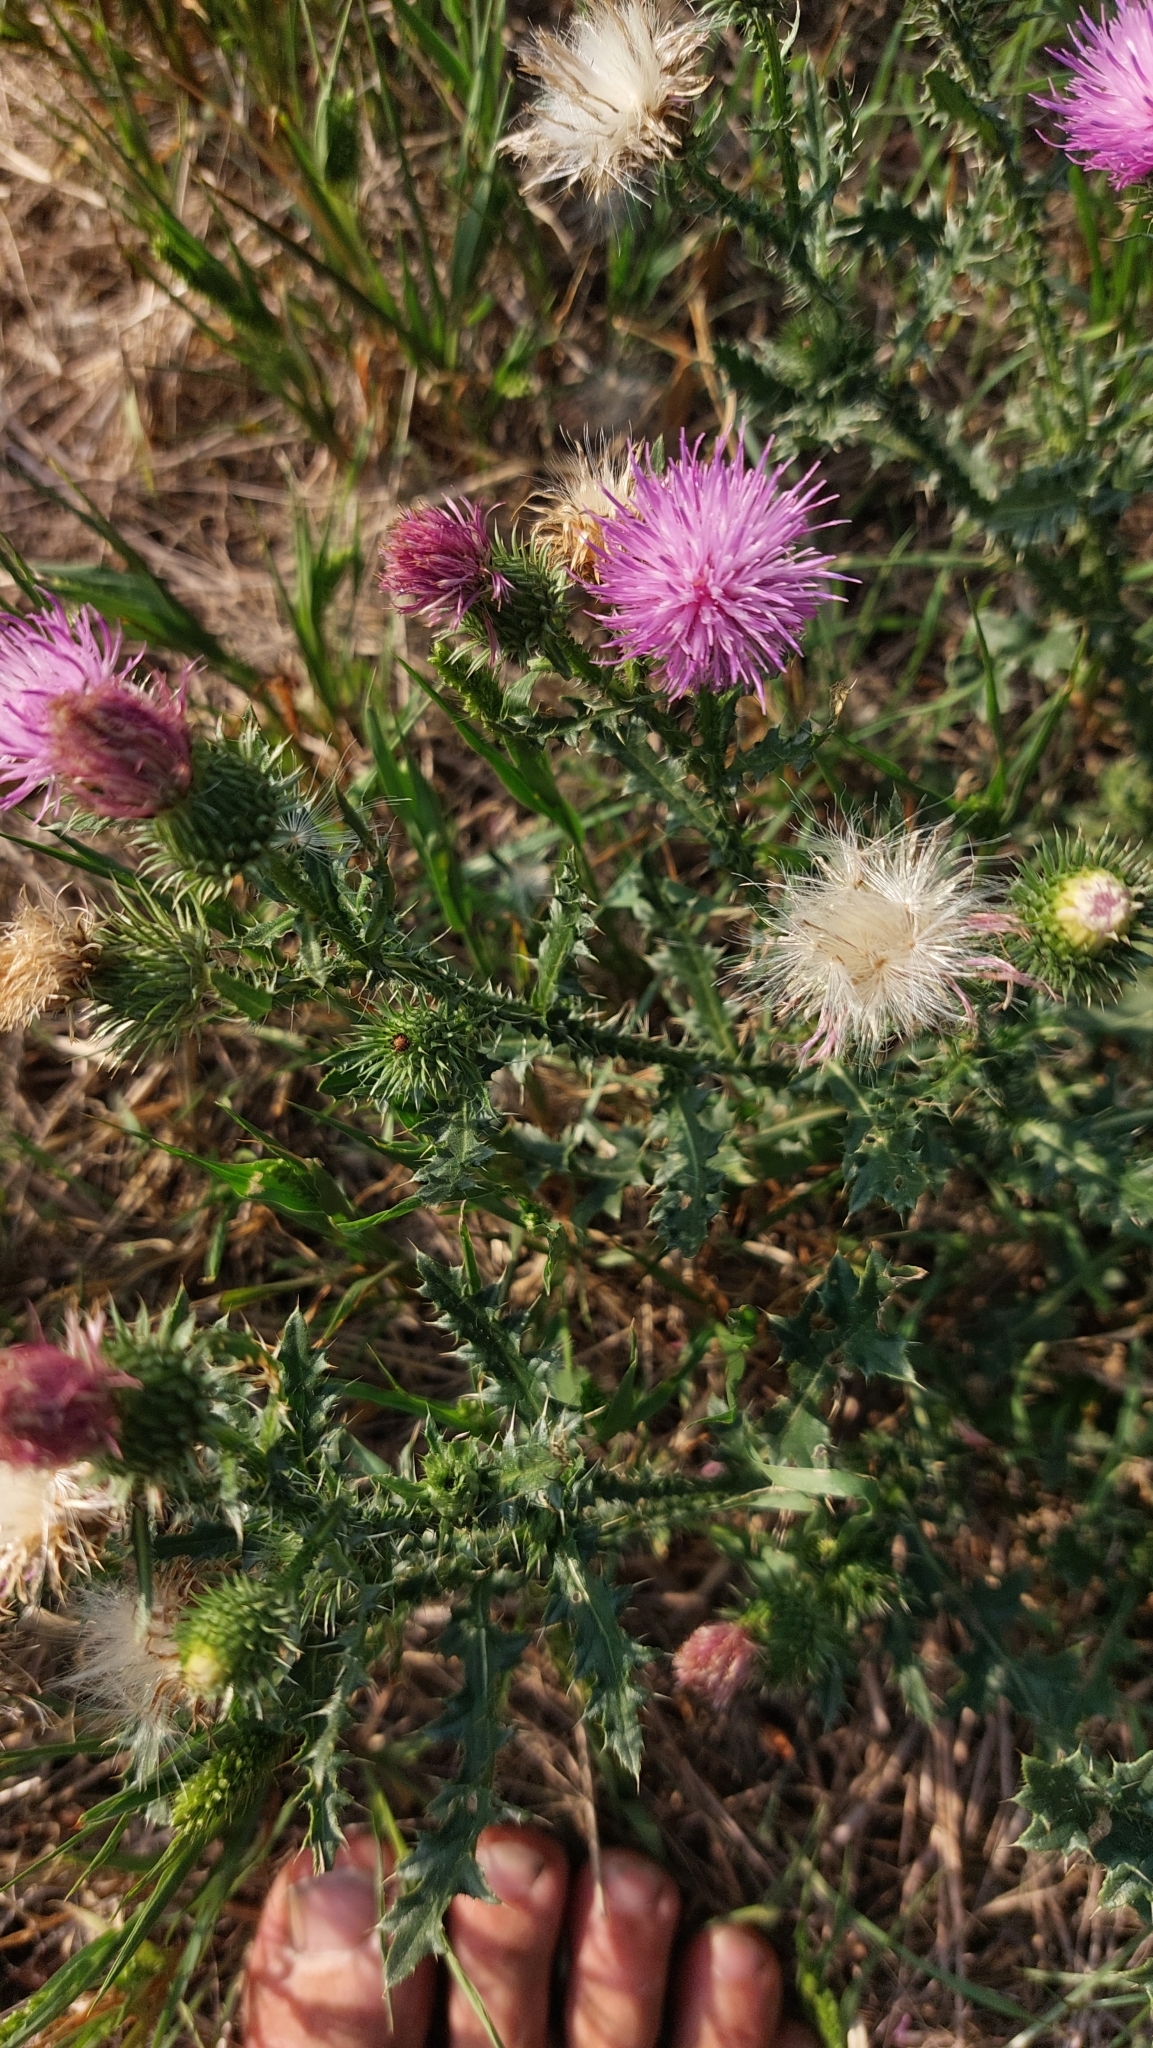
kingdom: Plantae
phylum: Tracheophyta
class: Magnoliopsida
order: Asterales
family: Asteraceae
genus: Carduus
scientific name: Carduus acanthoides
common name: Plumeless thistle
